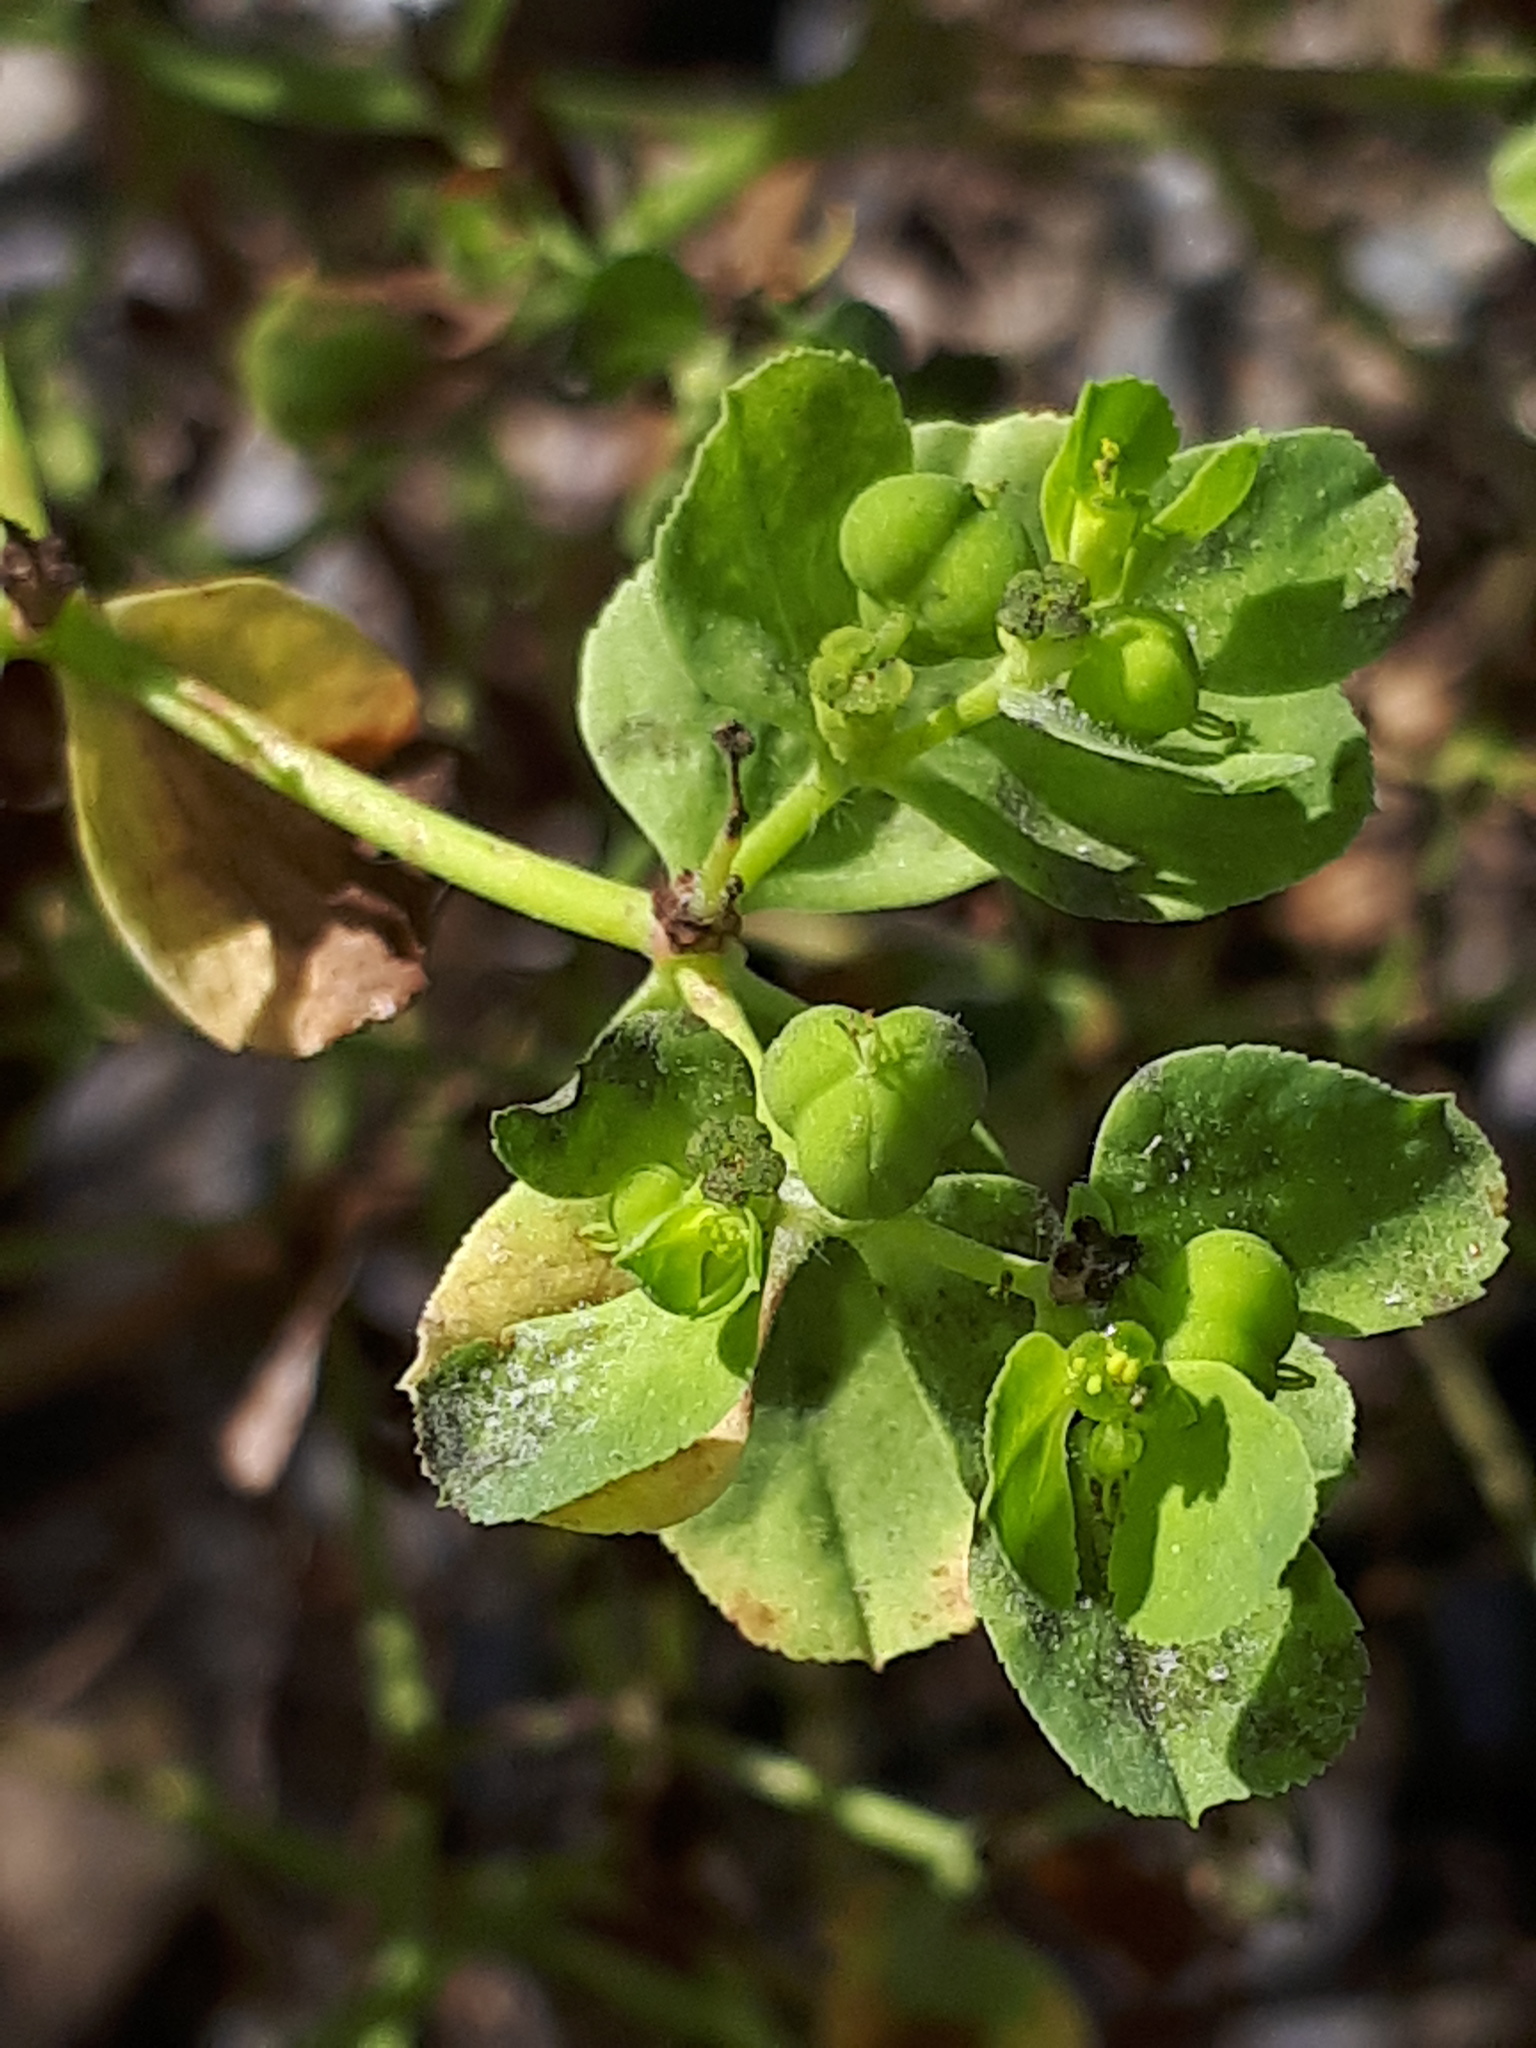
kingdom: Plantae
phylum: Tracheophyta
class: Magnoliopsida
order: Malpighiales
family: Euphorbiaceae
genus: Euphorbia
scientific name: Euphorbia helioscopia
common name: Sun spurge
